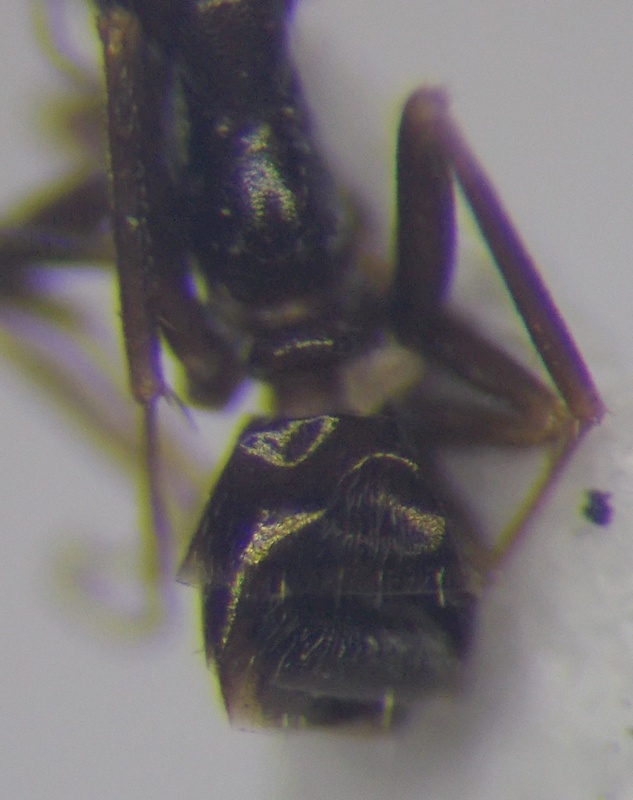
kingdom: Animalia
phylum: Arthropoda
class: Insecta
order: Hymenoptera
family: Formicidae
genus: Proformica
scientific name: Proformica epinotalis
